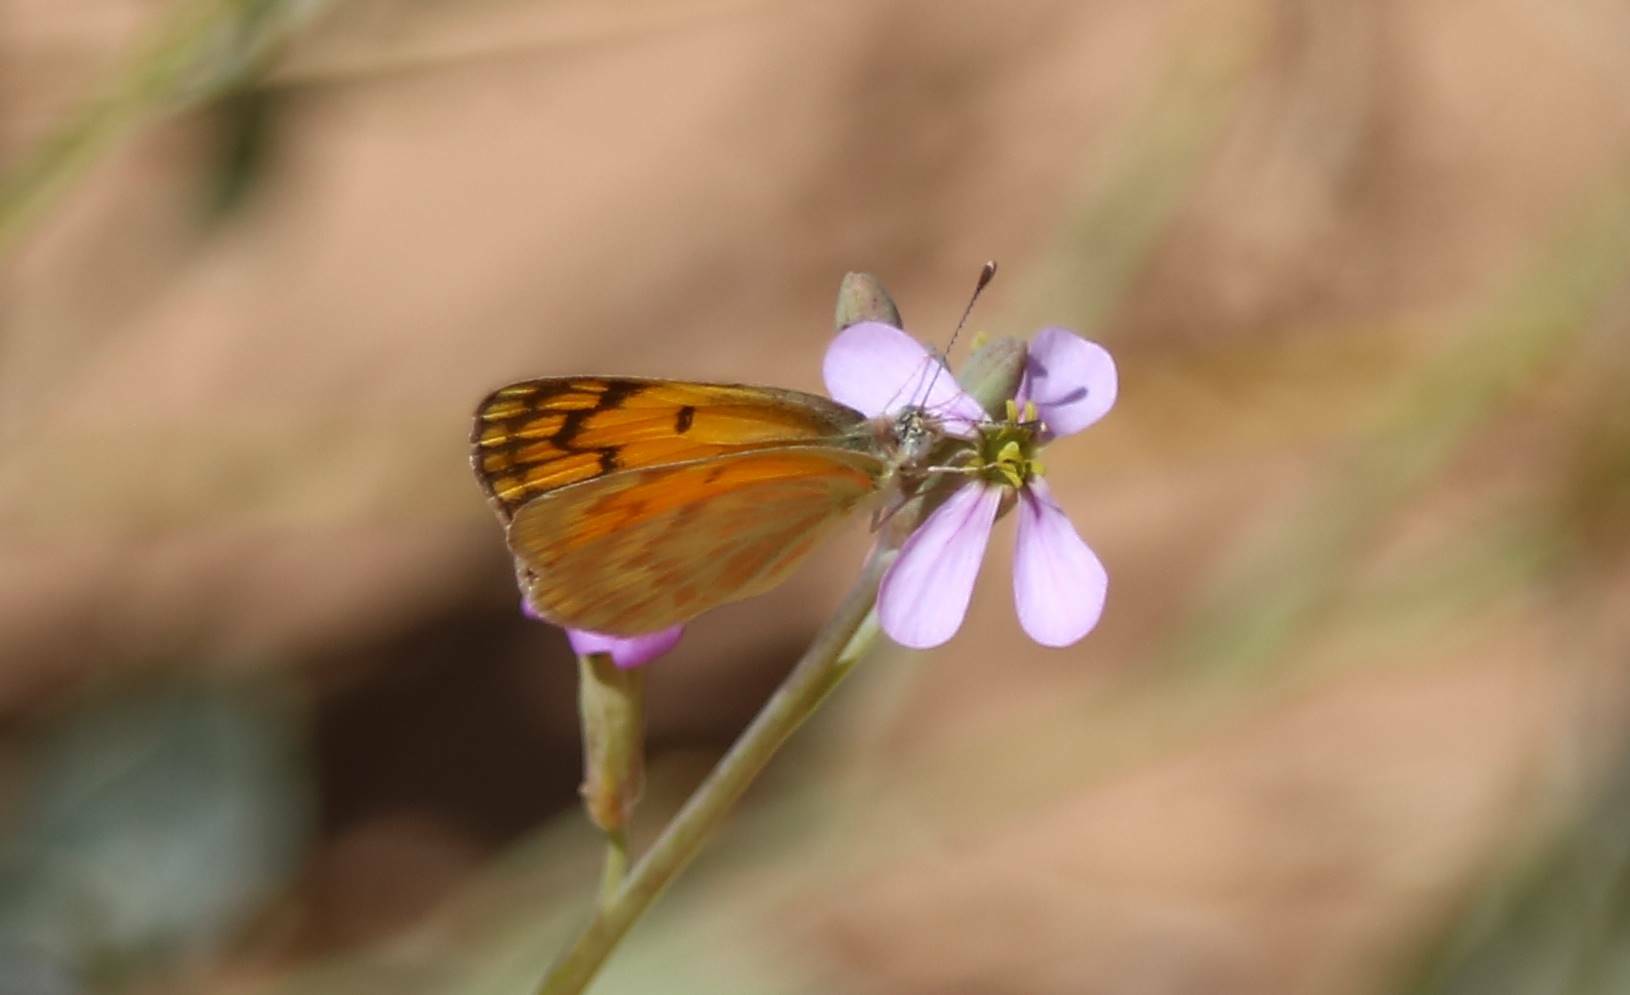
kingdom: Animalia
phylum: Arthropoda
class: Insecta
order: Lepidoptera
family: Pieridae
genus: Colotis
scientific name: Colotis chrysonome
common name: Golden arab
